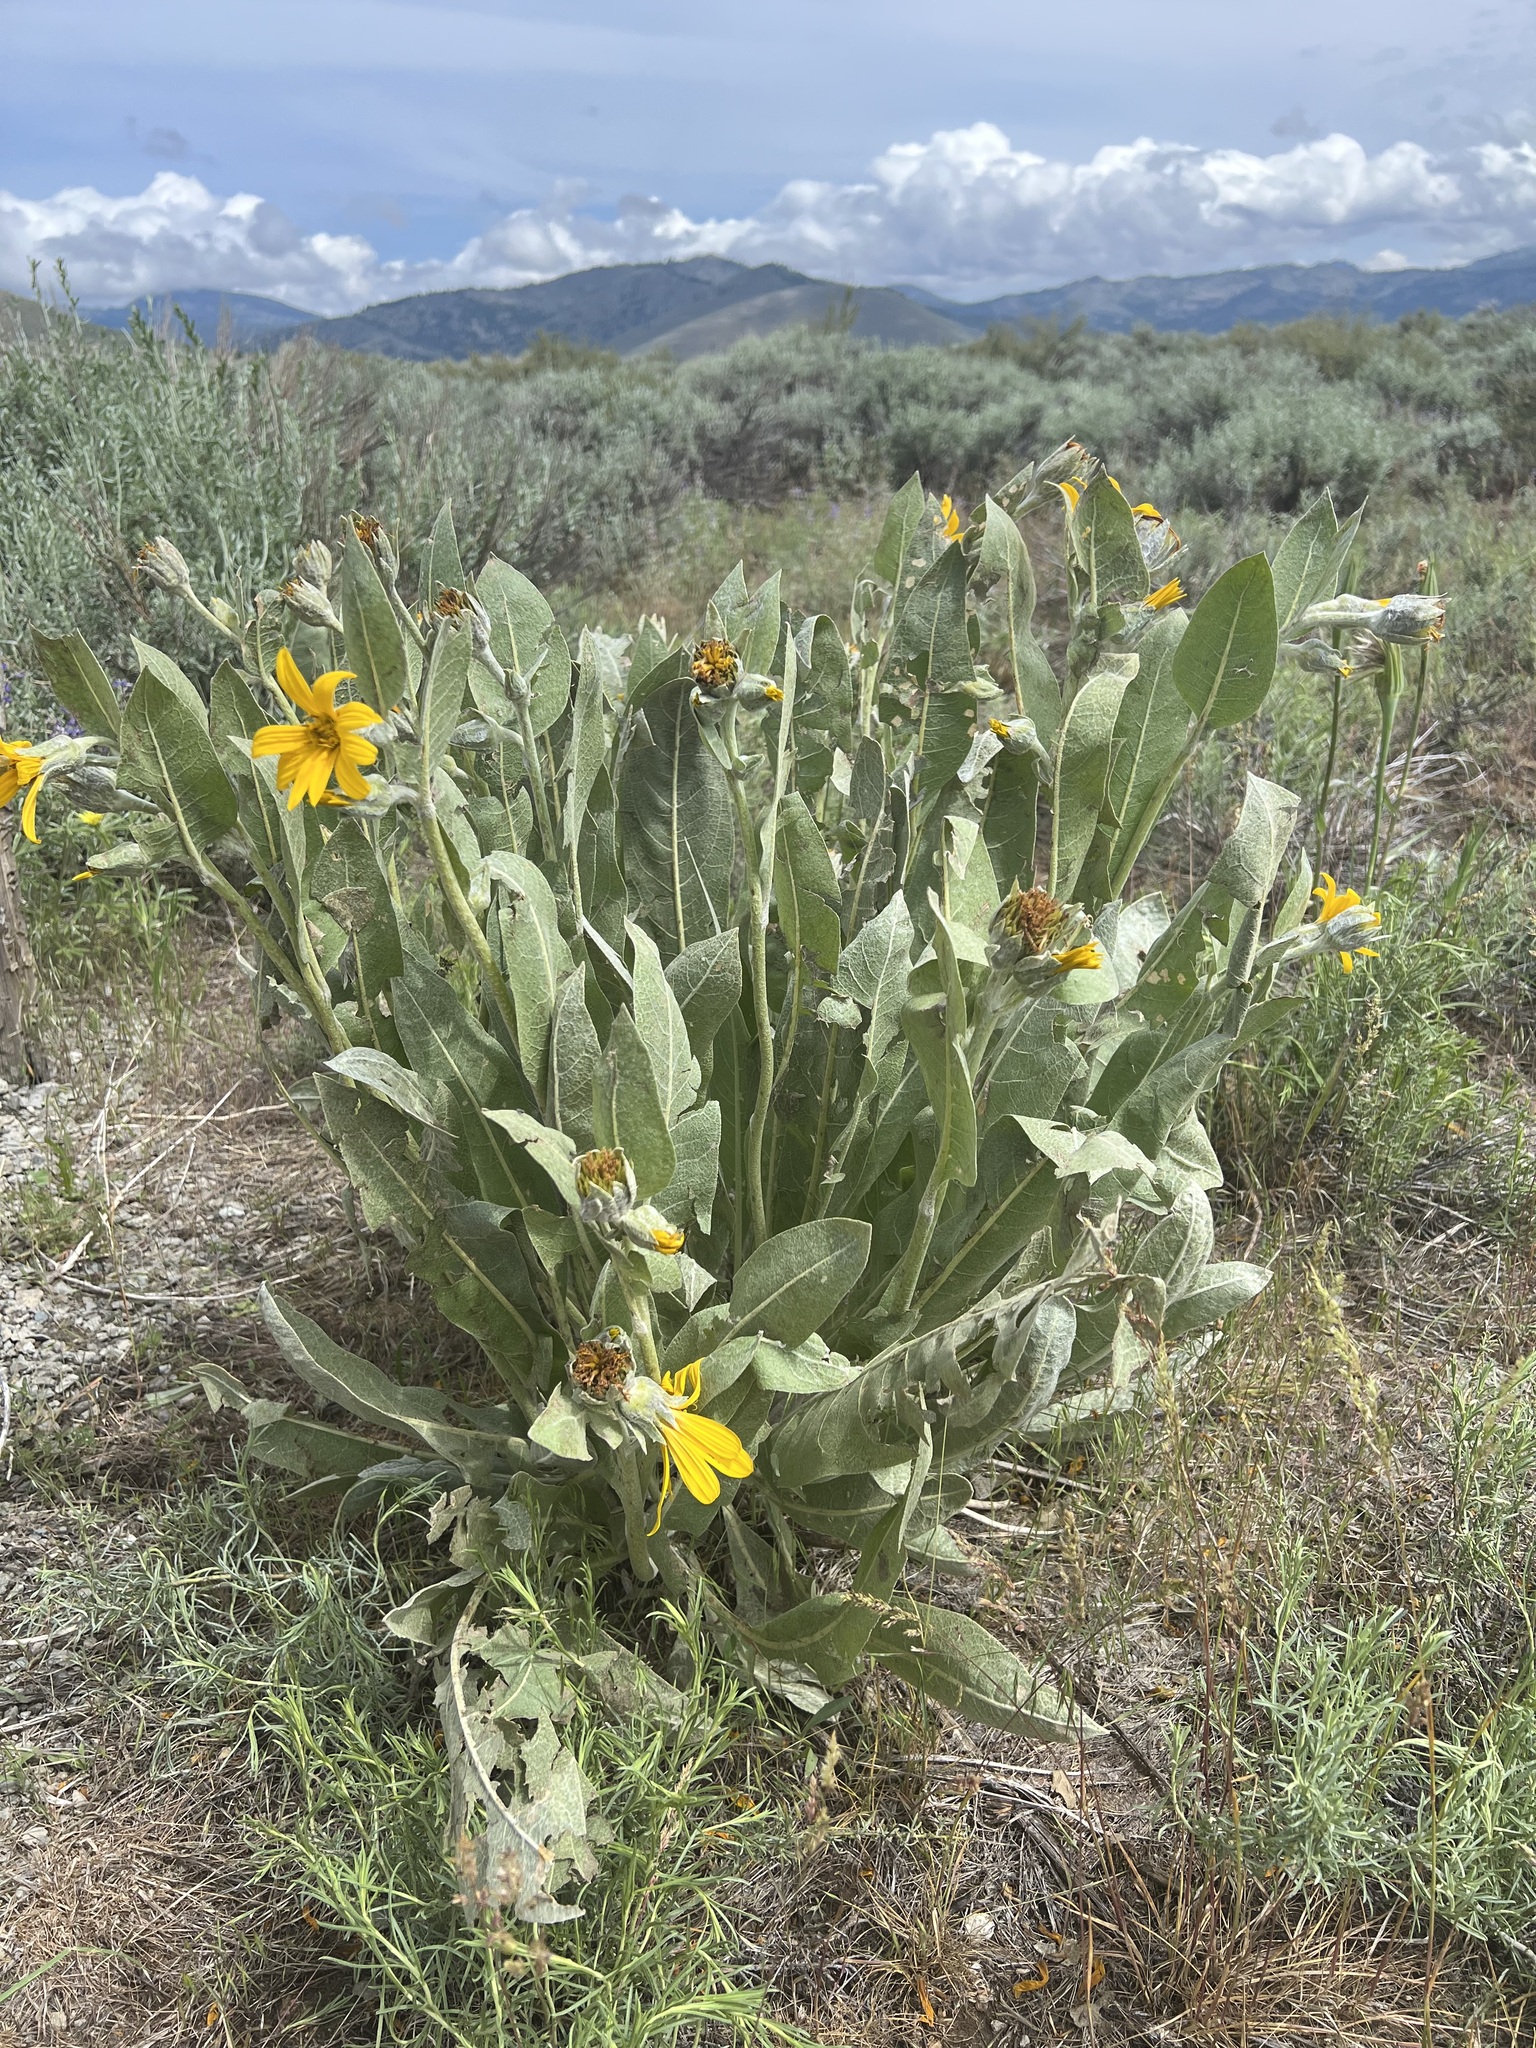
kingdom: Plantae
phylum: Tracheophyta
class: Magnoliopsida
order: Asterales
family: Asteraceae
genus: Wyethia
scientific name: Wyethia mollis
